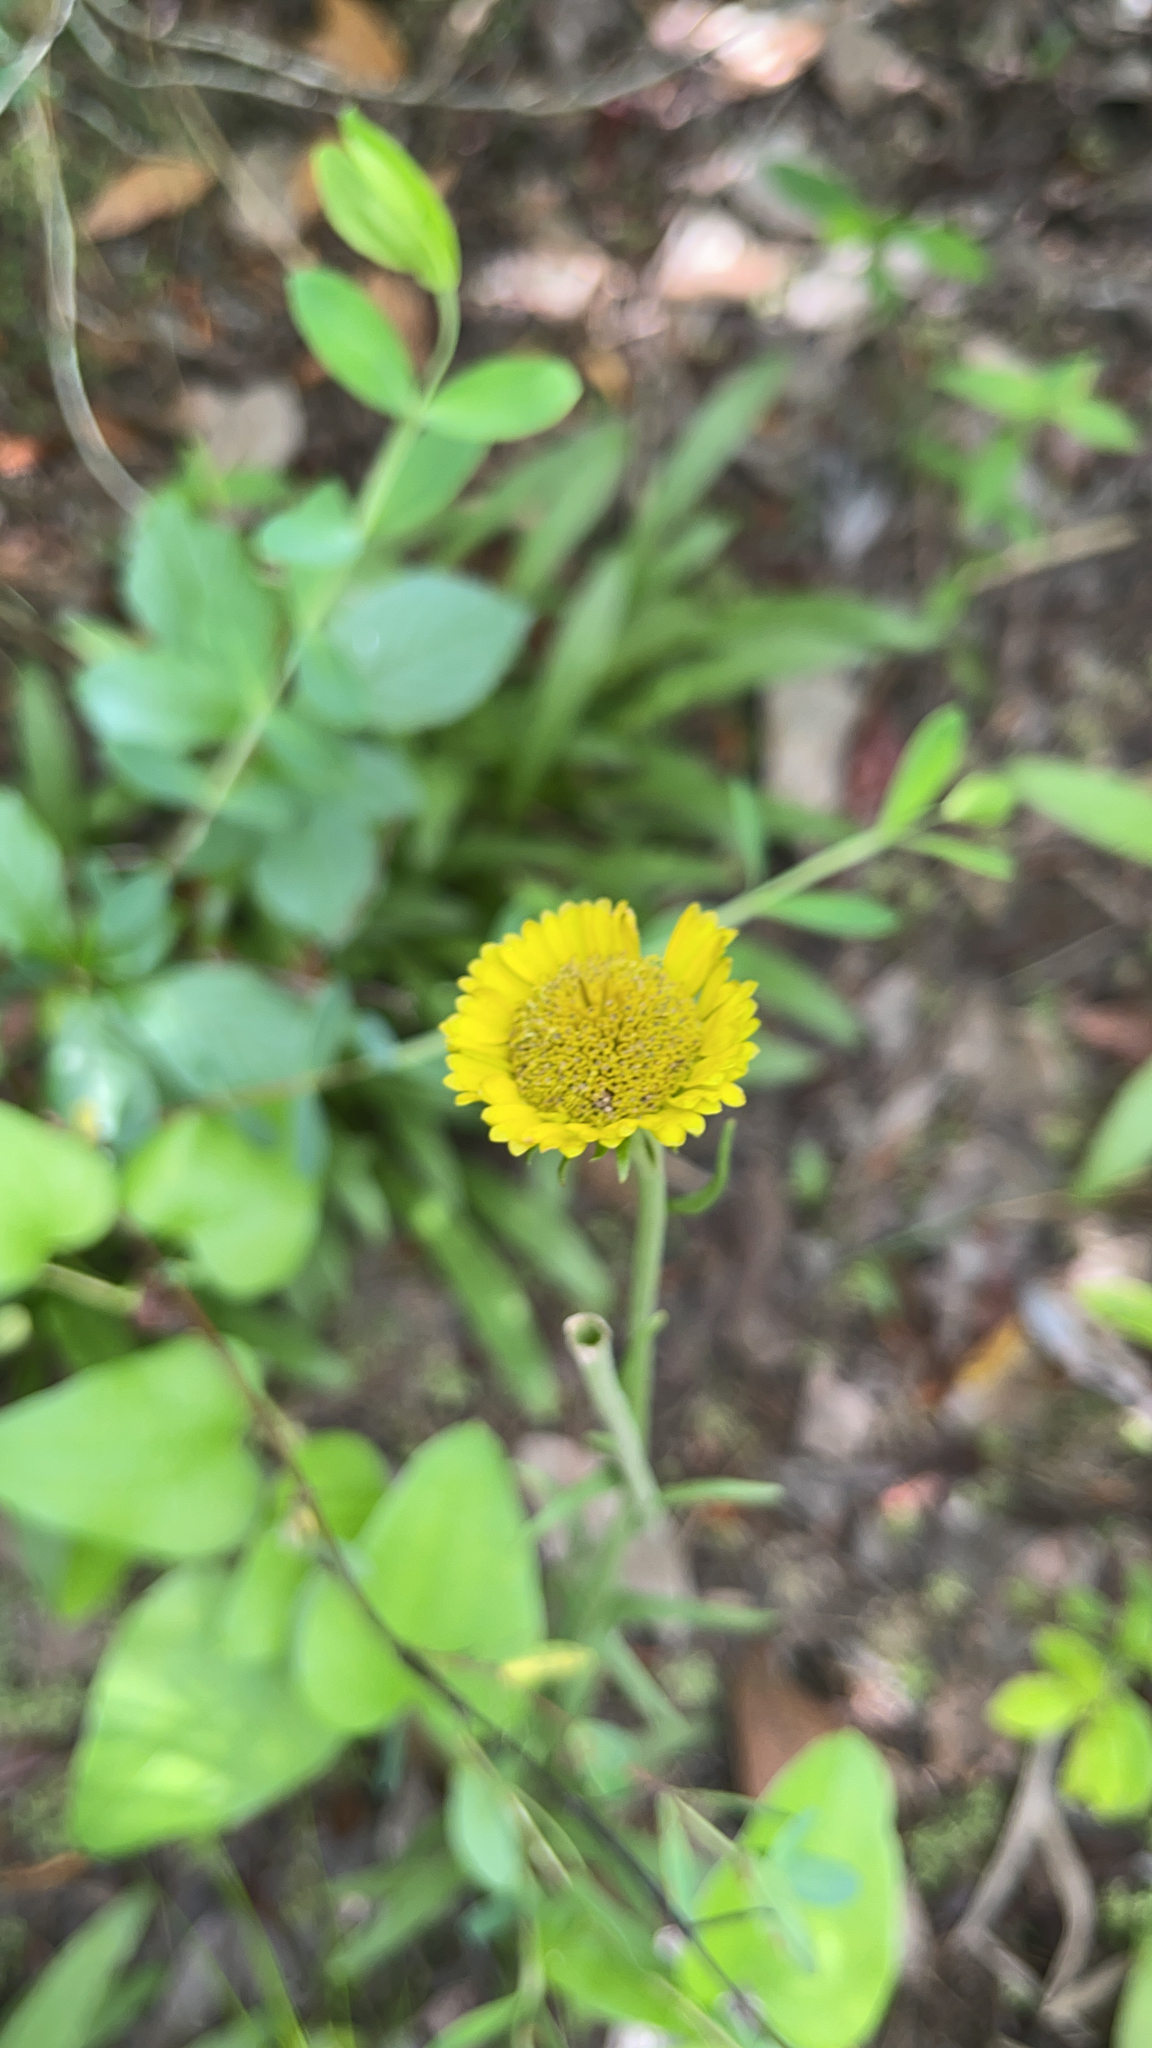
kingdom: Plantae
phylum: Tracheophyta
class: Magnoliopsida
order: Asterales
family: Asteraceae
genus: Helenium
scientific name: Helenium pinnatifidum
